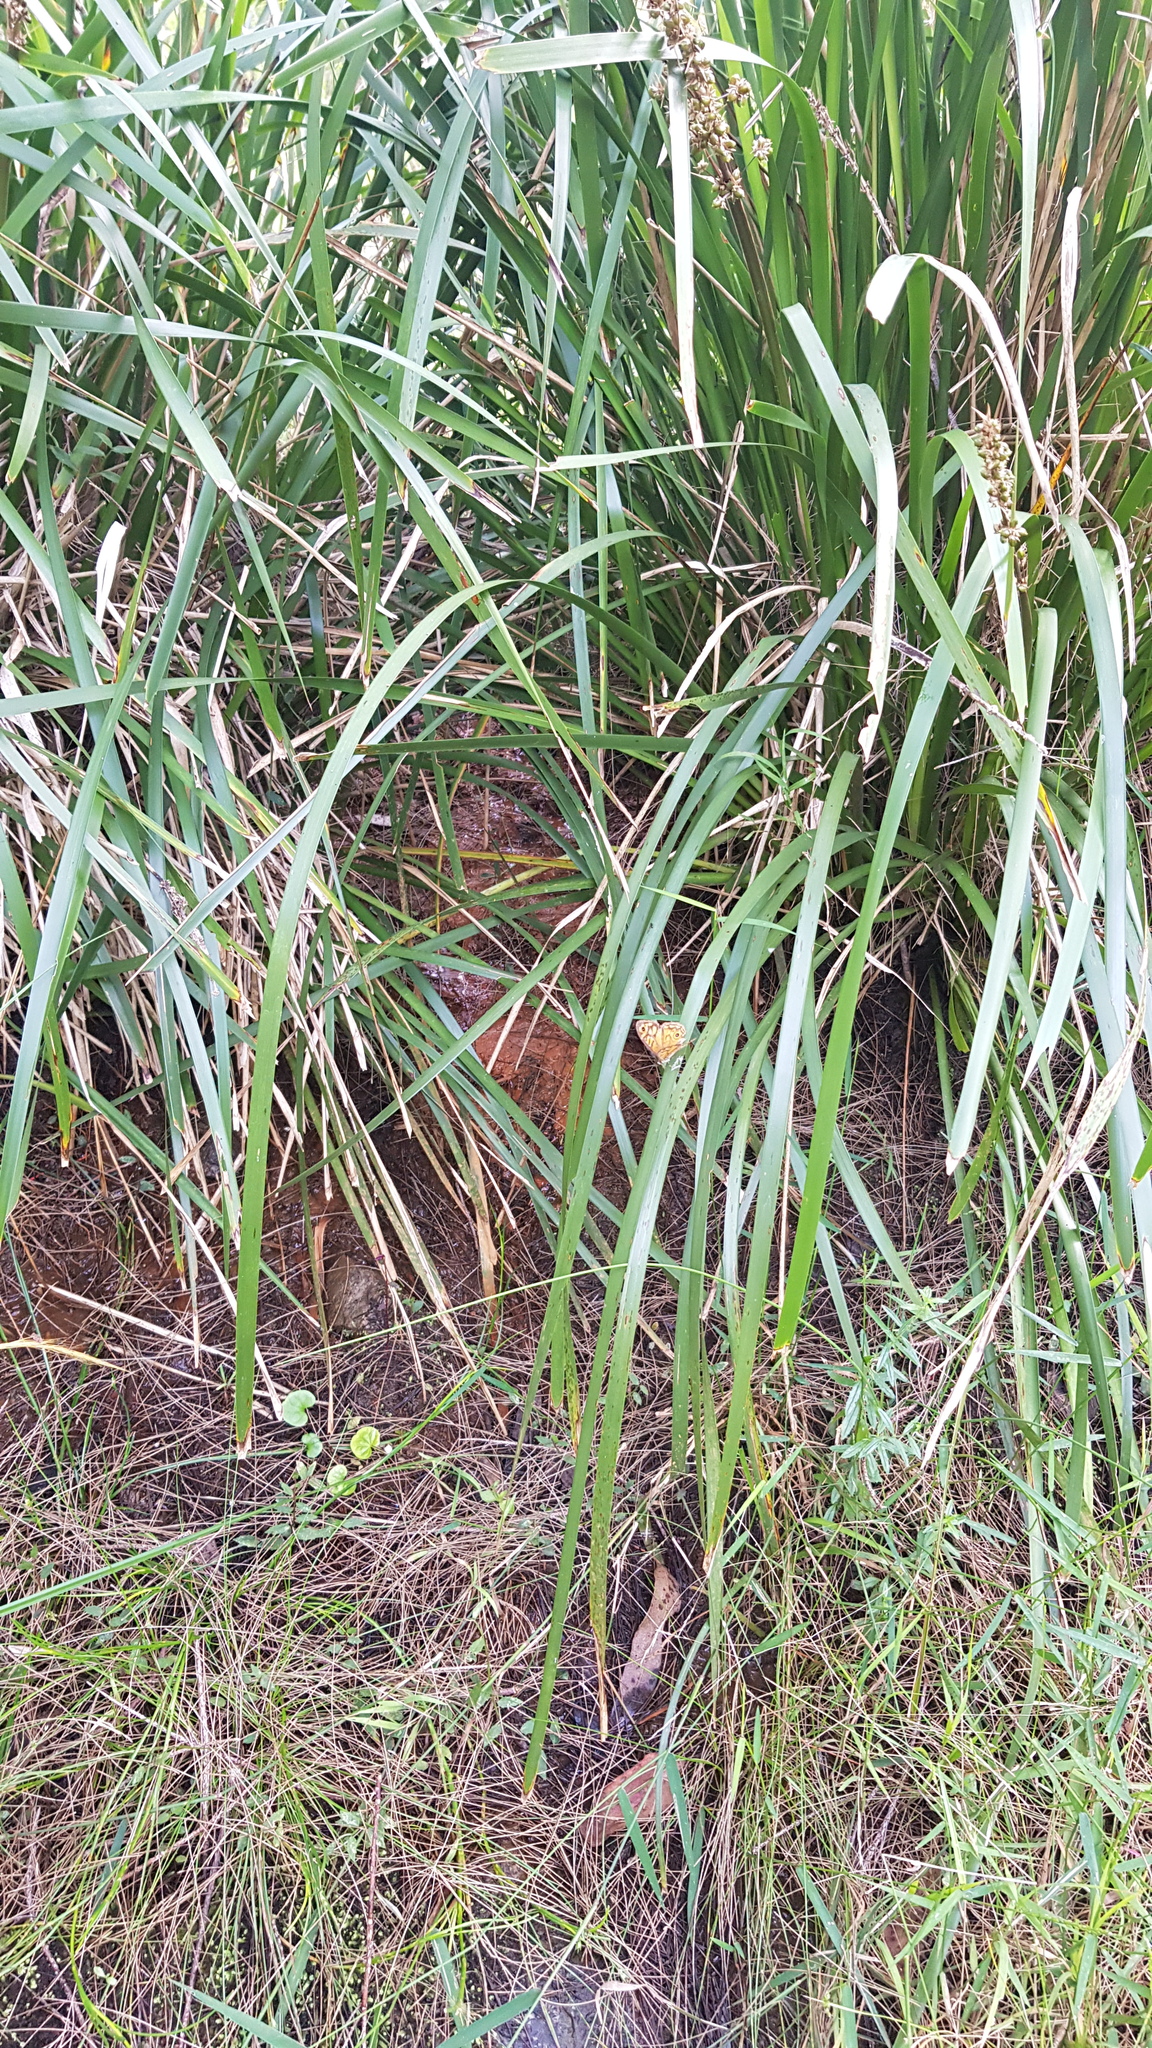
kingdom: Animalia
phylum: Arthropoda
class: Insecta
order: Lepidoptera
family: Nymphalidae
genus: Geitoneura
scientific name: Geitoneura acantha
